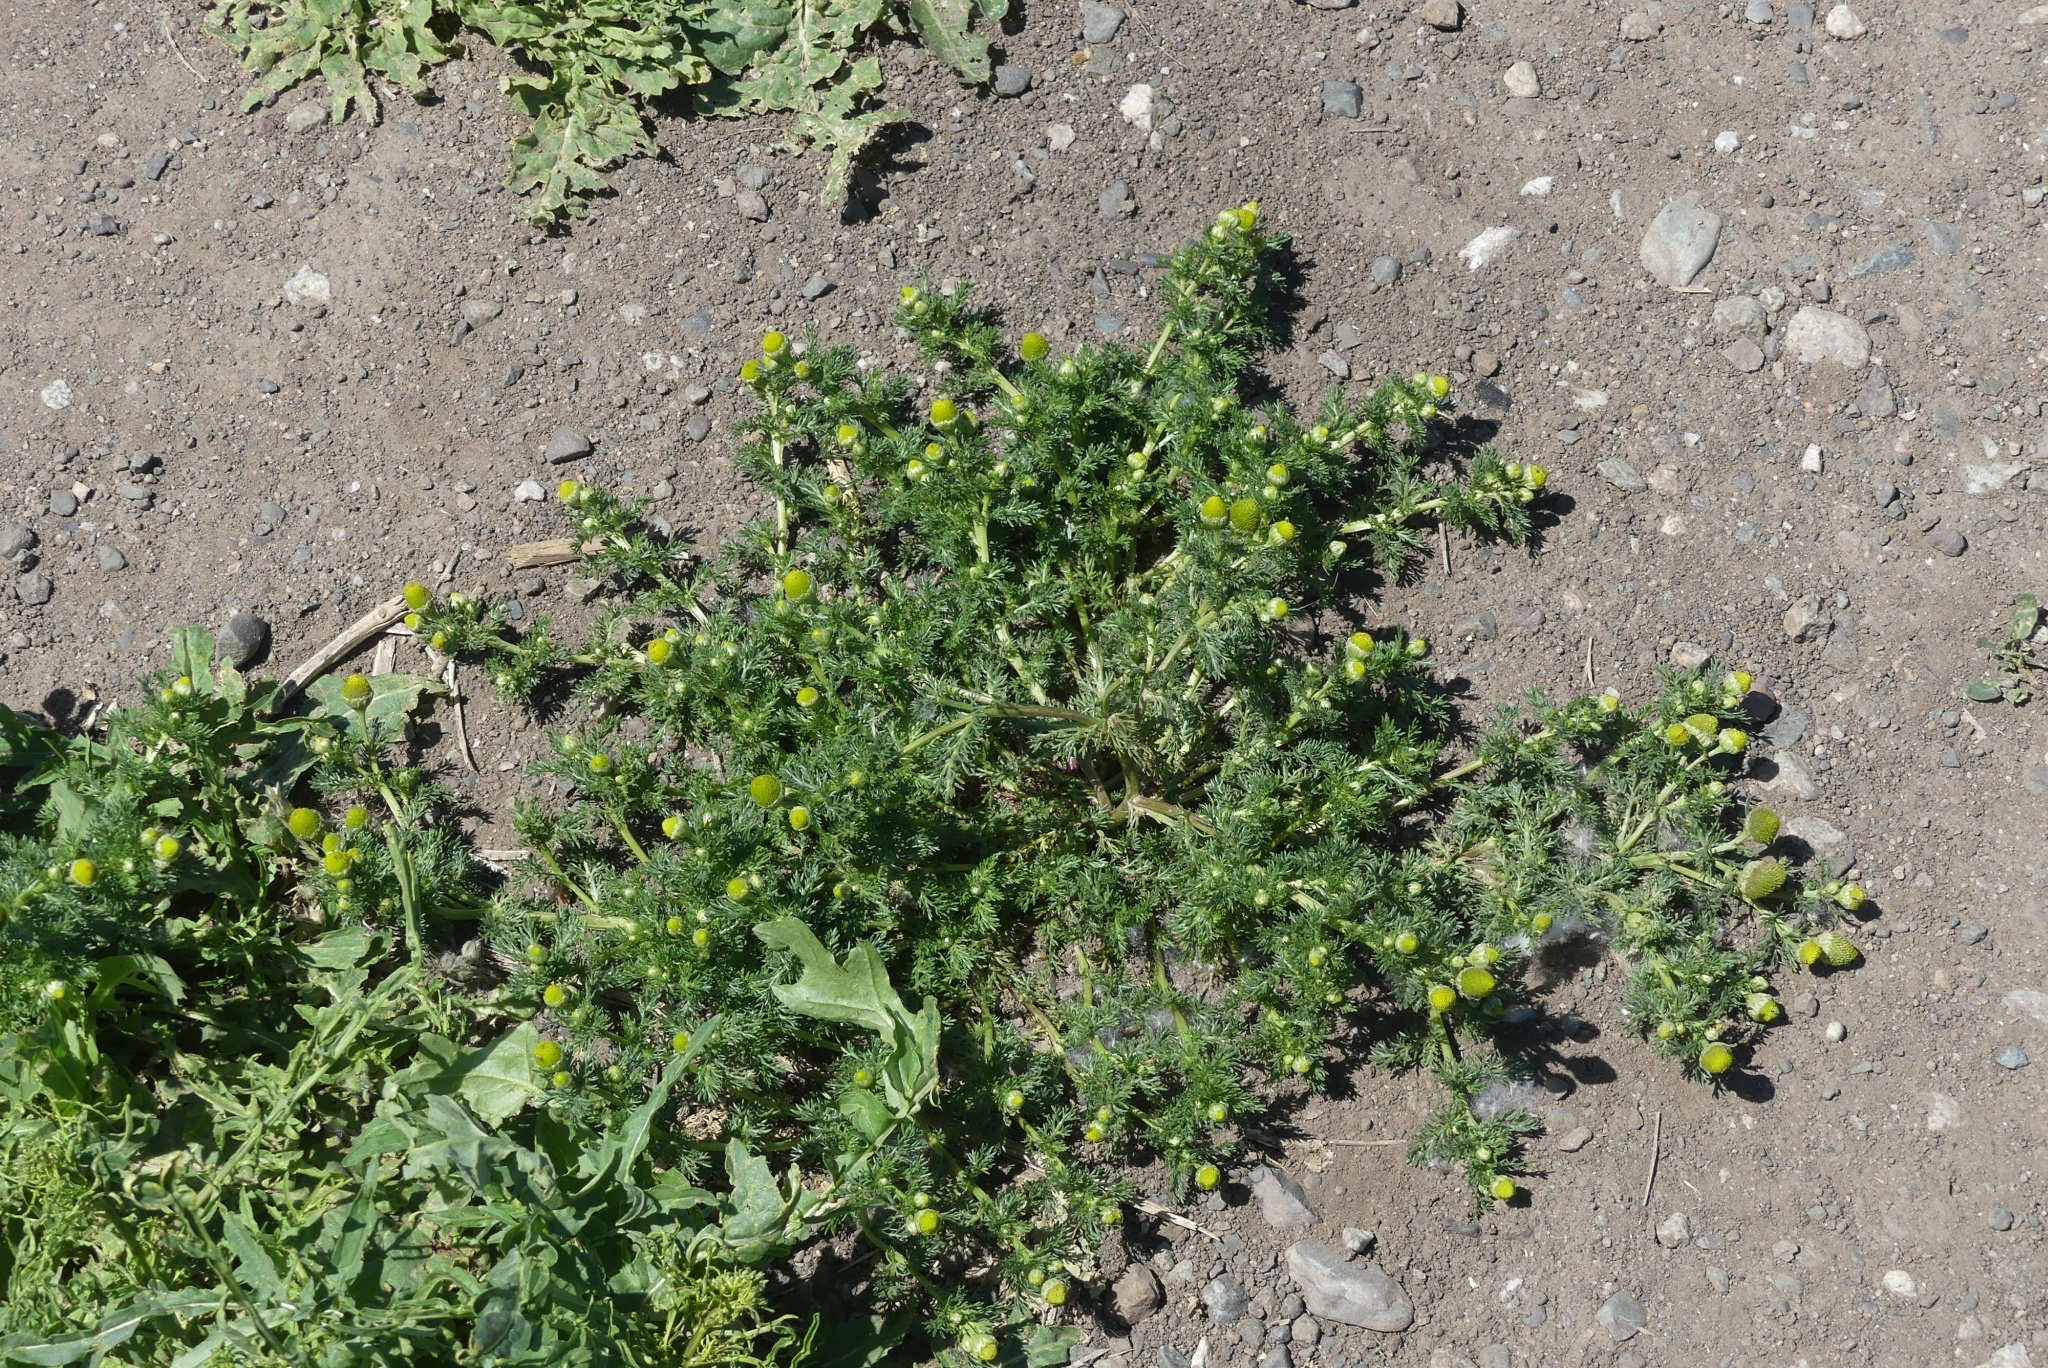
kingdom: Plantae
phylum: Tracheophyta
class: Magnoliopsida
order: Asterales
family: Asteraceae
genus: Matricaria
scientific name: Matricaria discoidea
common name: Disc mayweed
